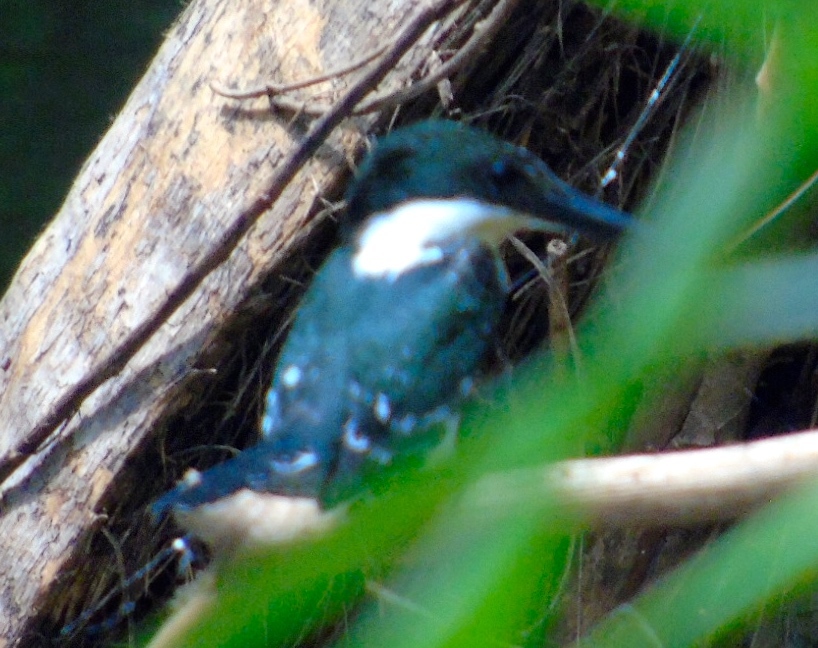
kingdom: Animalia
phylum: Chordata
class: Aves
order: Coraciiformes
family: Alcedinidae
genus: Chloroceryle
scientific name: Chloroceryle americana
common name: Green kingfisher
